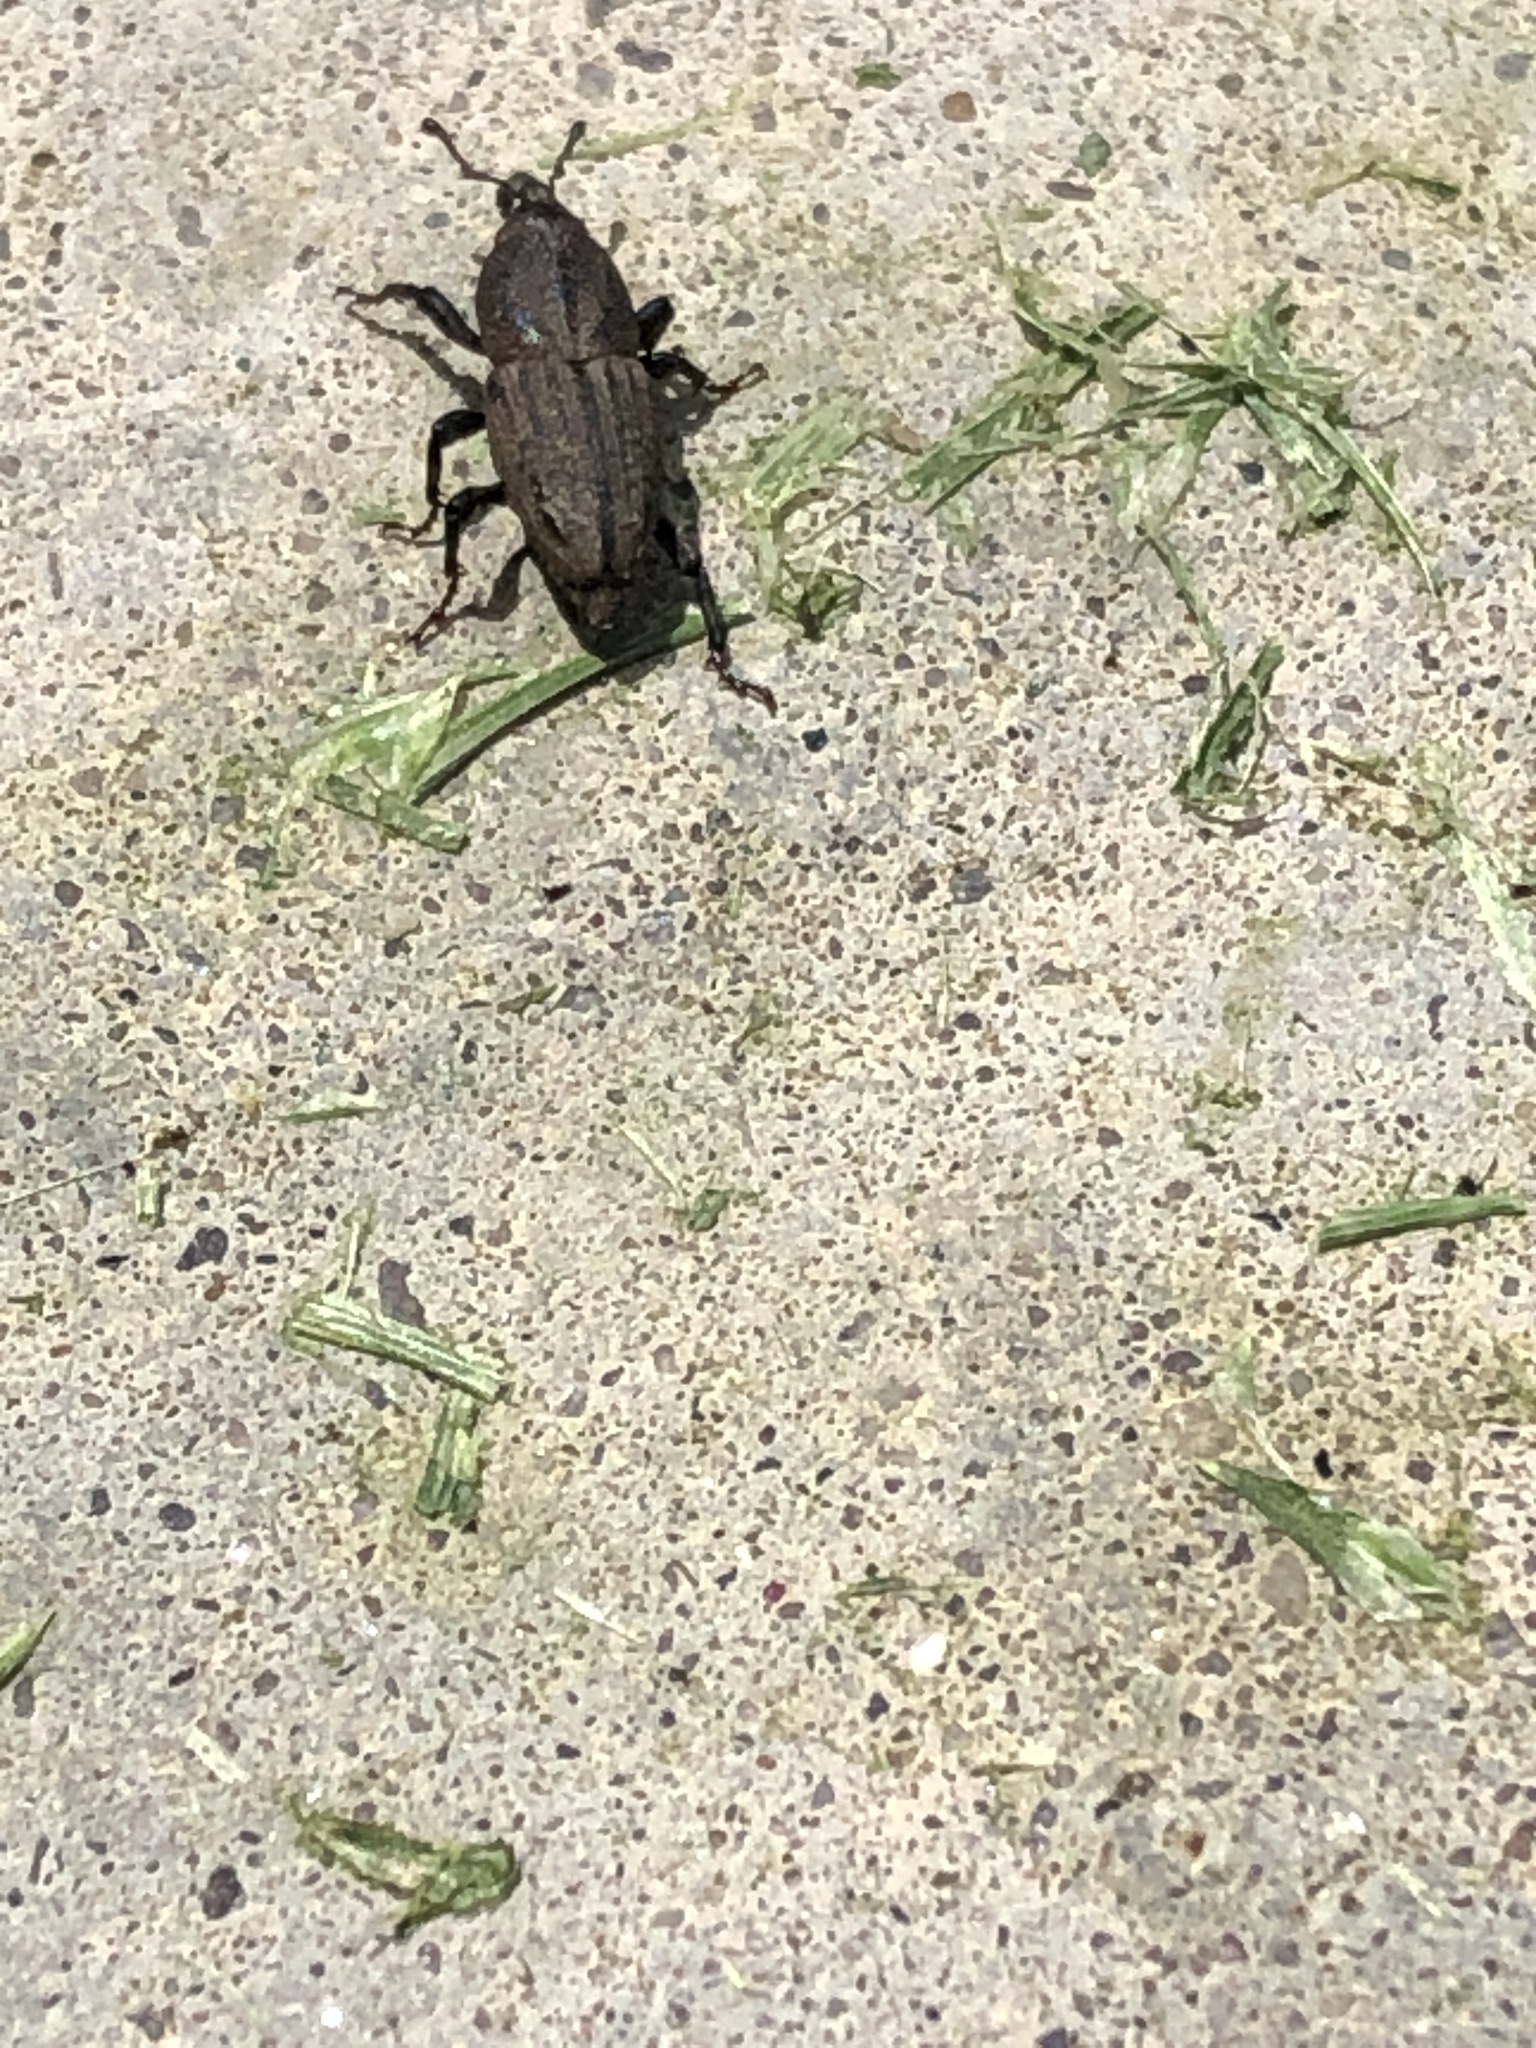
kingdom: Animalia
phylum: Arthropoda
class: Insecta
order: Coleoptera
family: Dryophthoridae
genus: Sphenophorus
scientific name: Sphenophorus interstitialis
